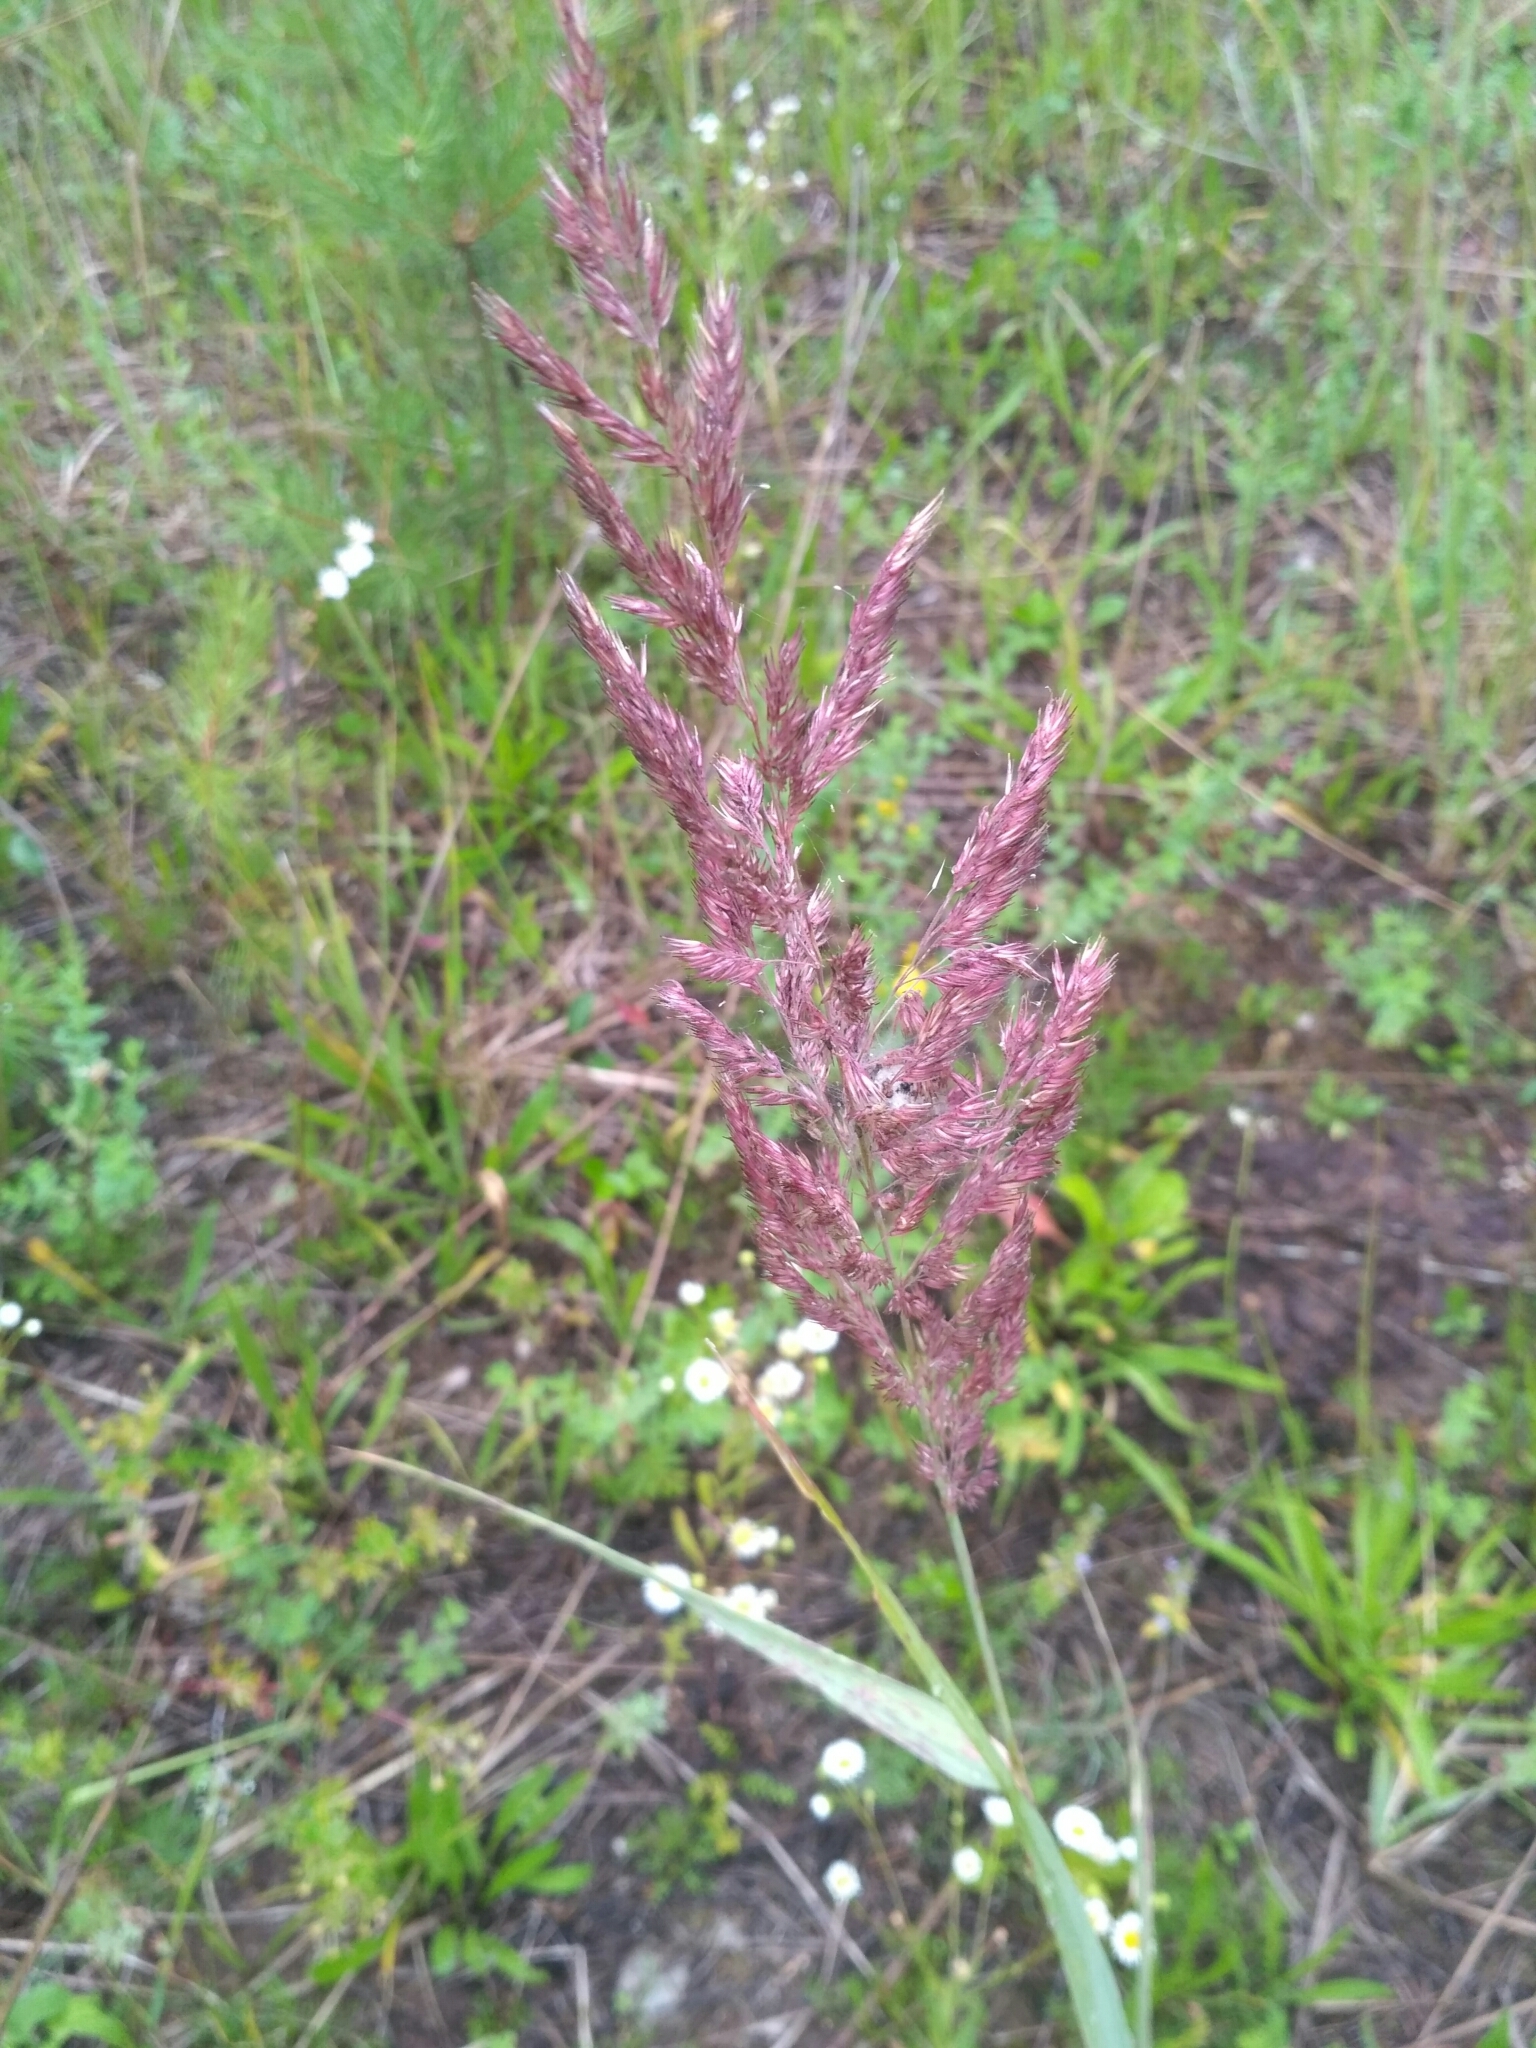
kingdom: Plantae
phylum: Tracheophyta
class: Liliopsida
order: Poales
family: Poaceae
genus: Calamagrostis
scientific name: Calamagrostis epigejos
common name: Wood small-reed
